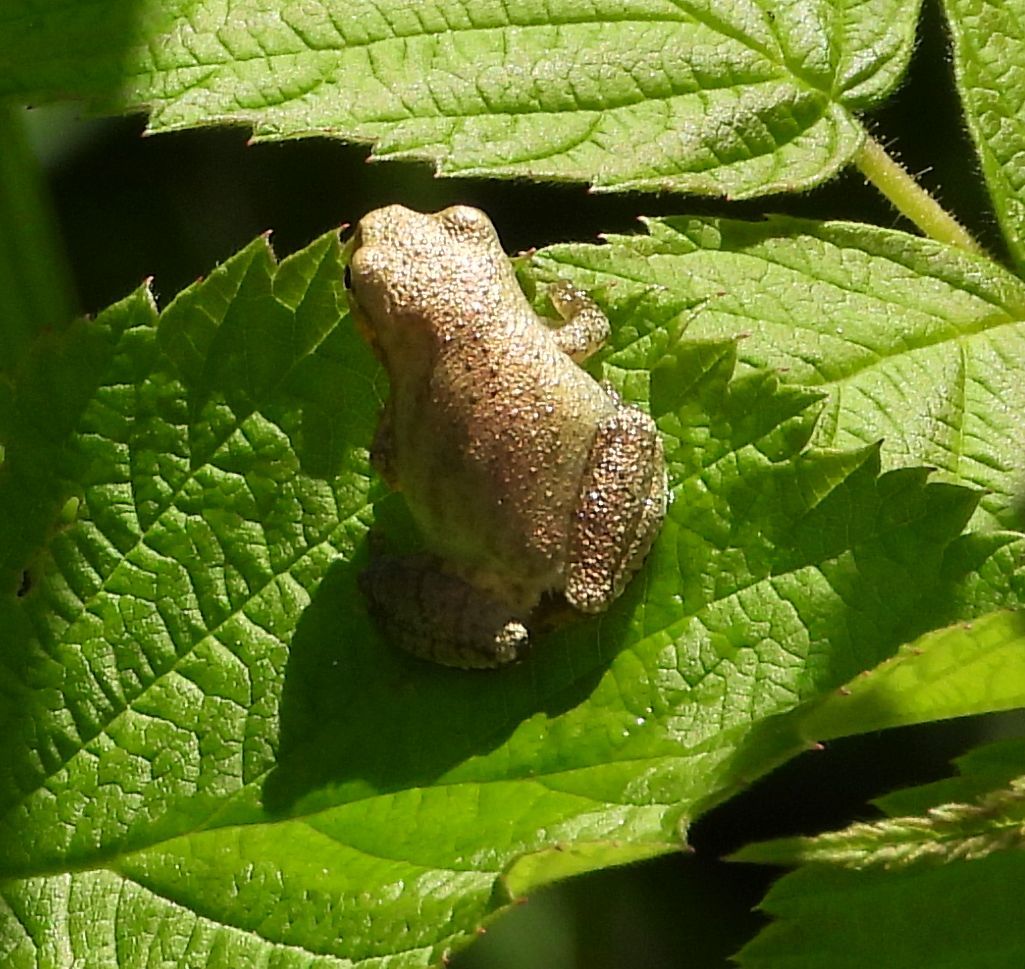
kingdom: Animalia
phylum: Chordata
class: Amphibia
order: Anura
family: Hylidae
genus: Pseudacris
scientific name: Pseudacris crucifer
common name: Spring peeper
